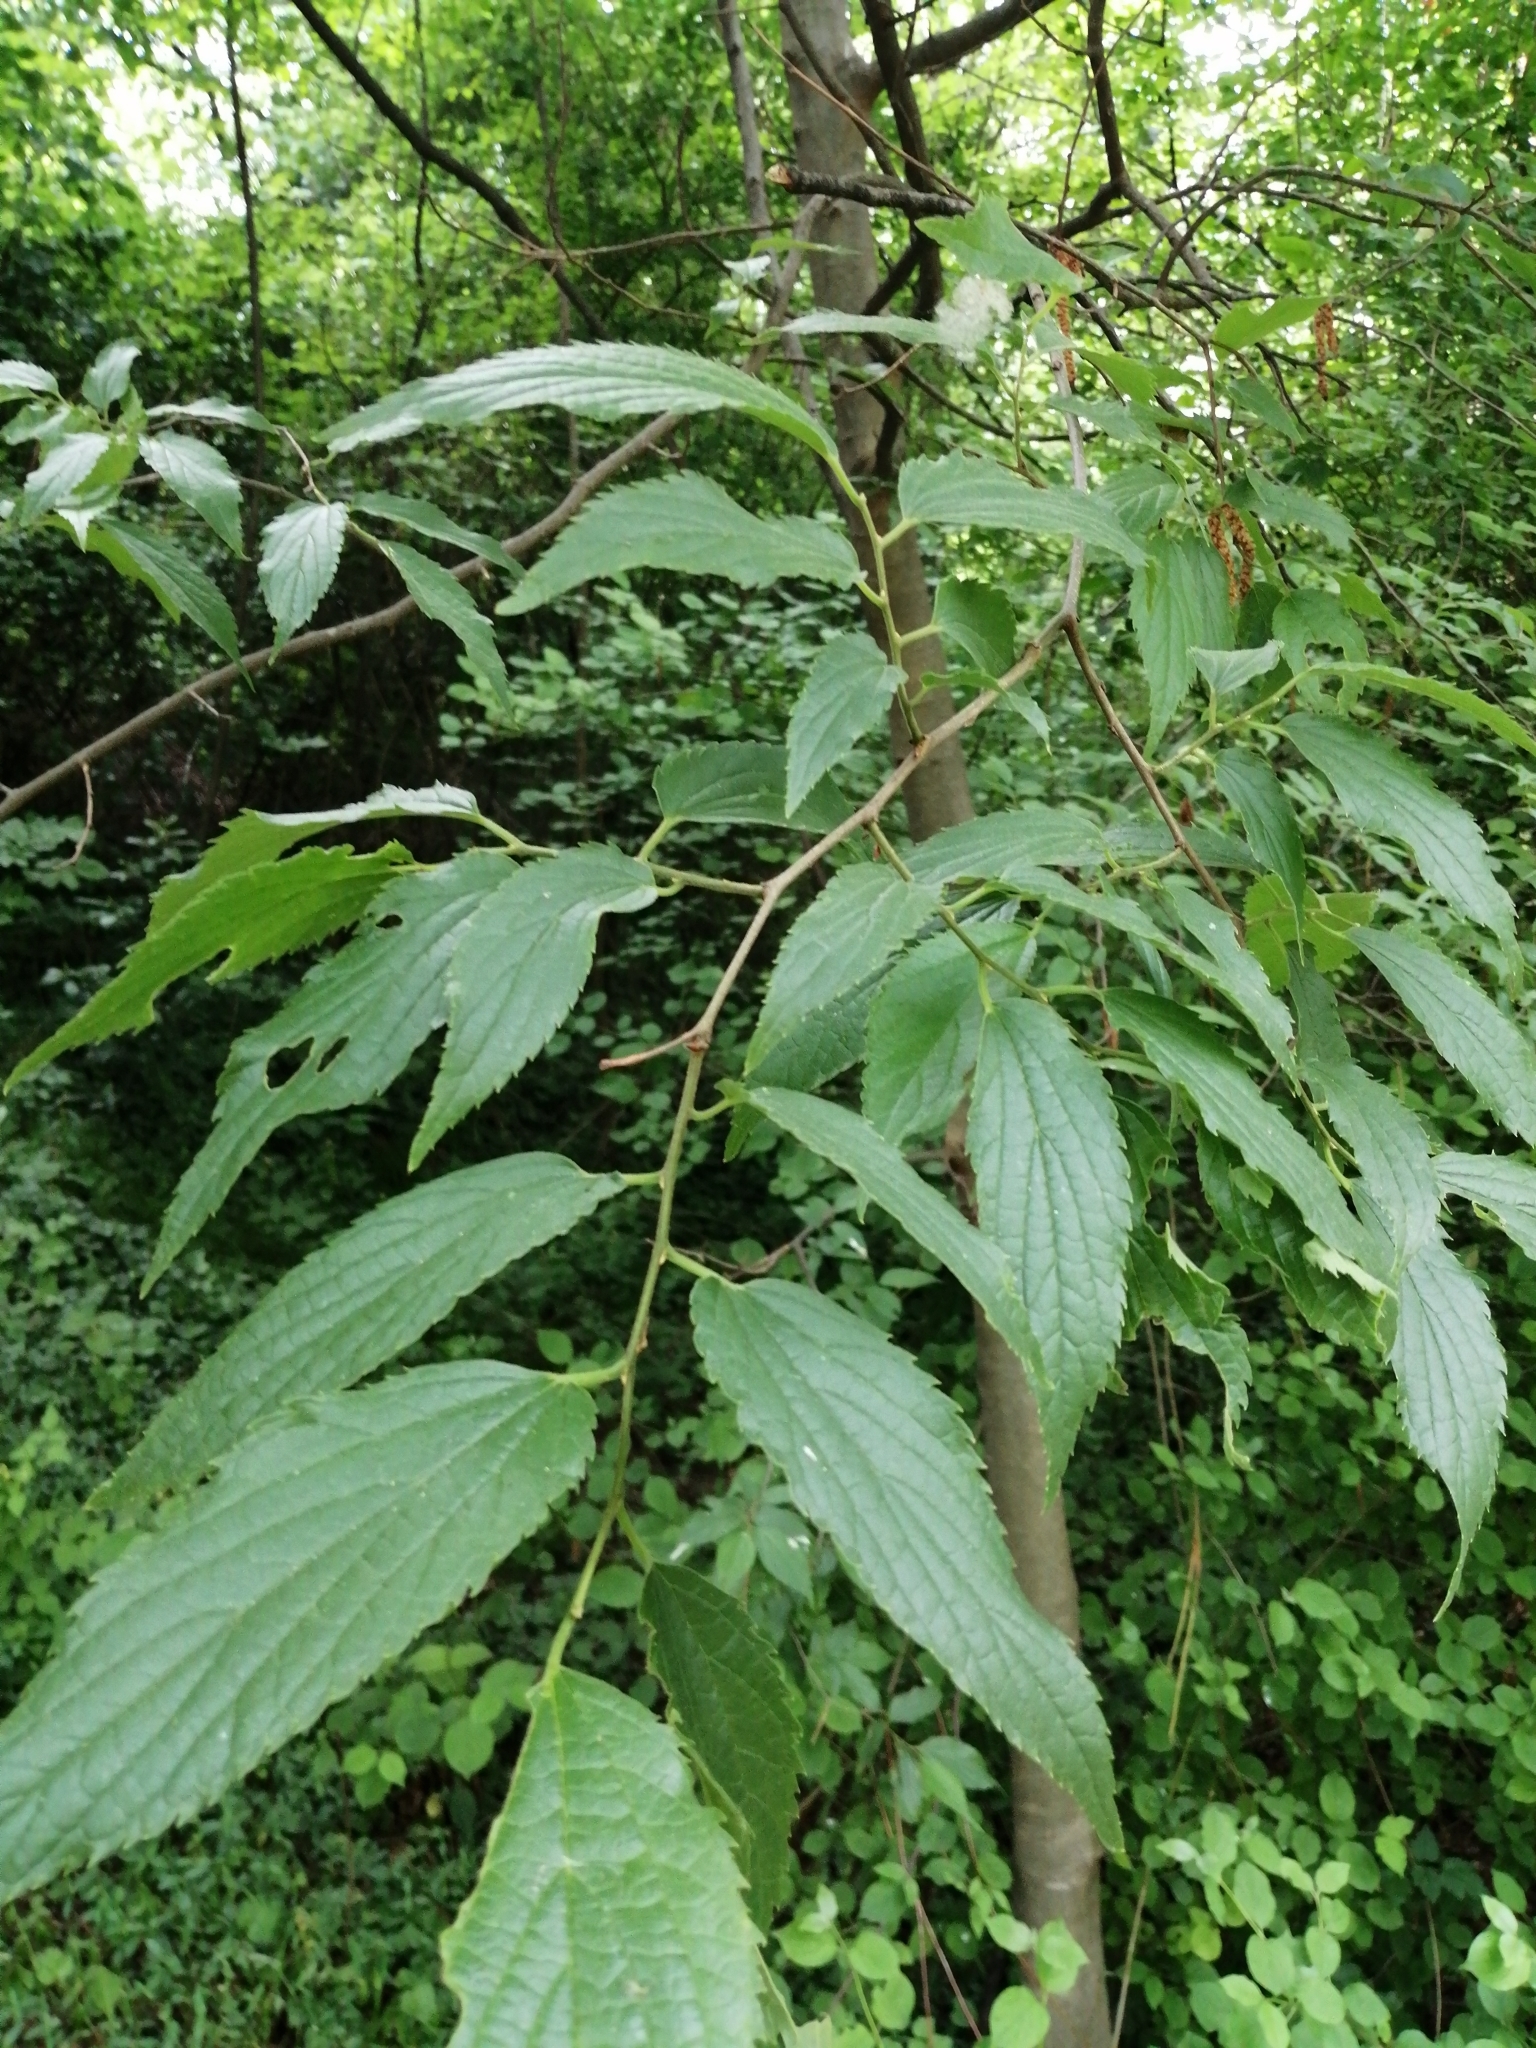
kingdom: Plantae
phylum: Tracheophyta
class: Magnoliopsida
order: Rosales
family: Cannabaceae
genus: Celtis
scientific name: Celtis australis
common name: European hackberry
